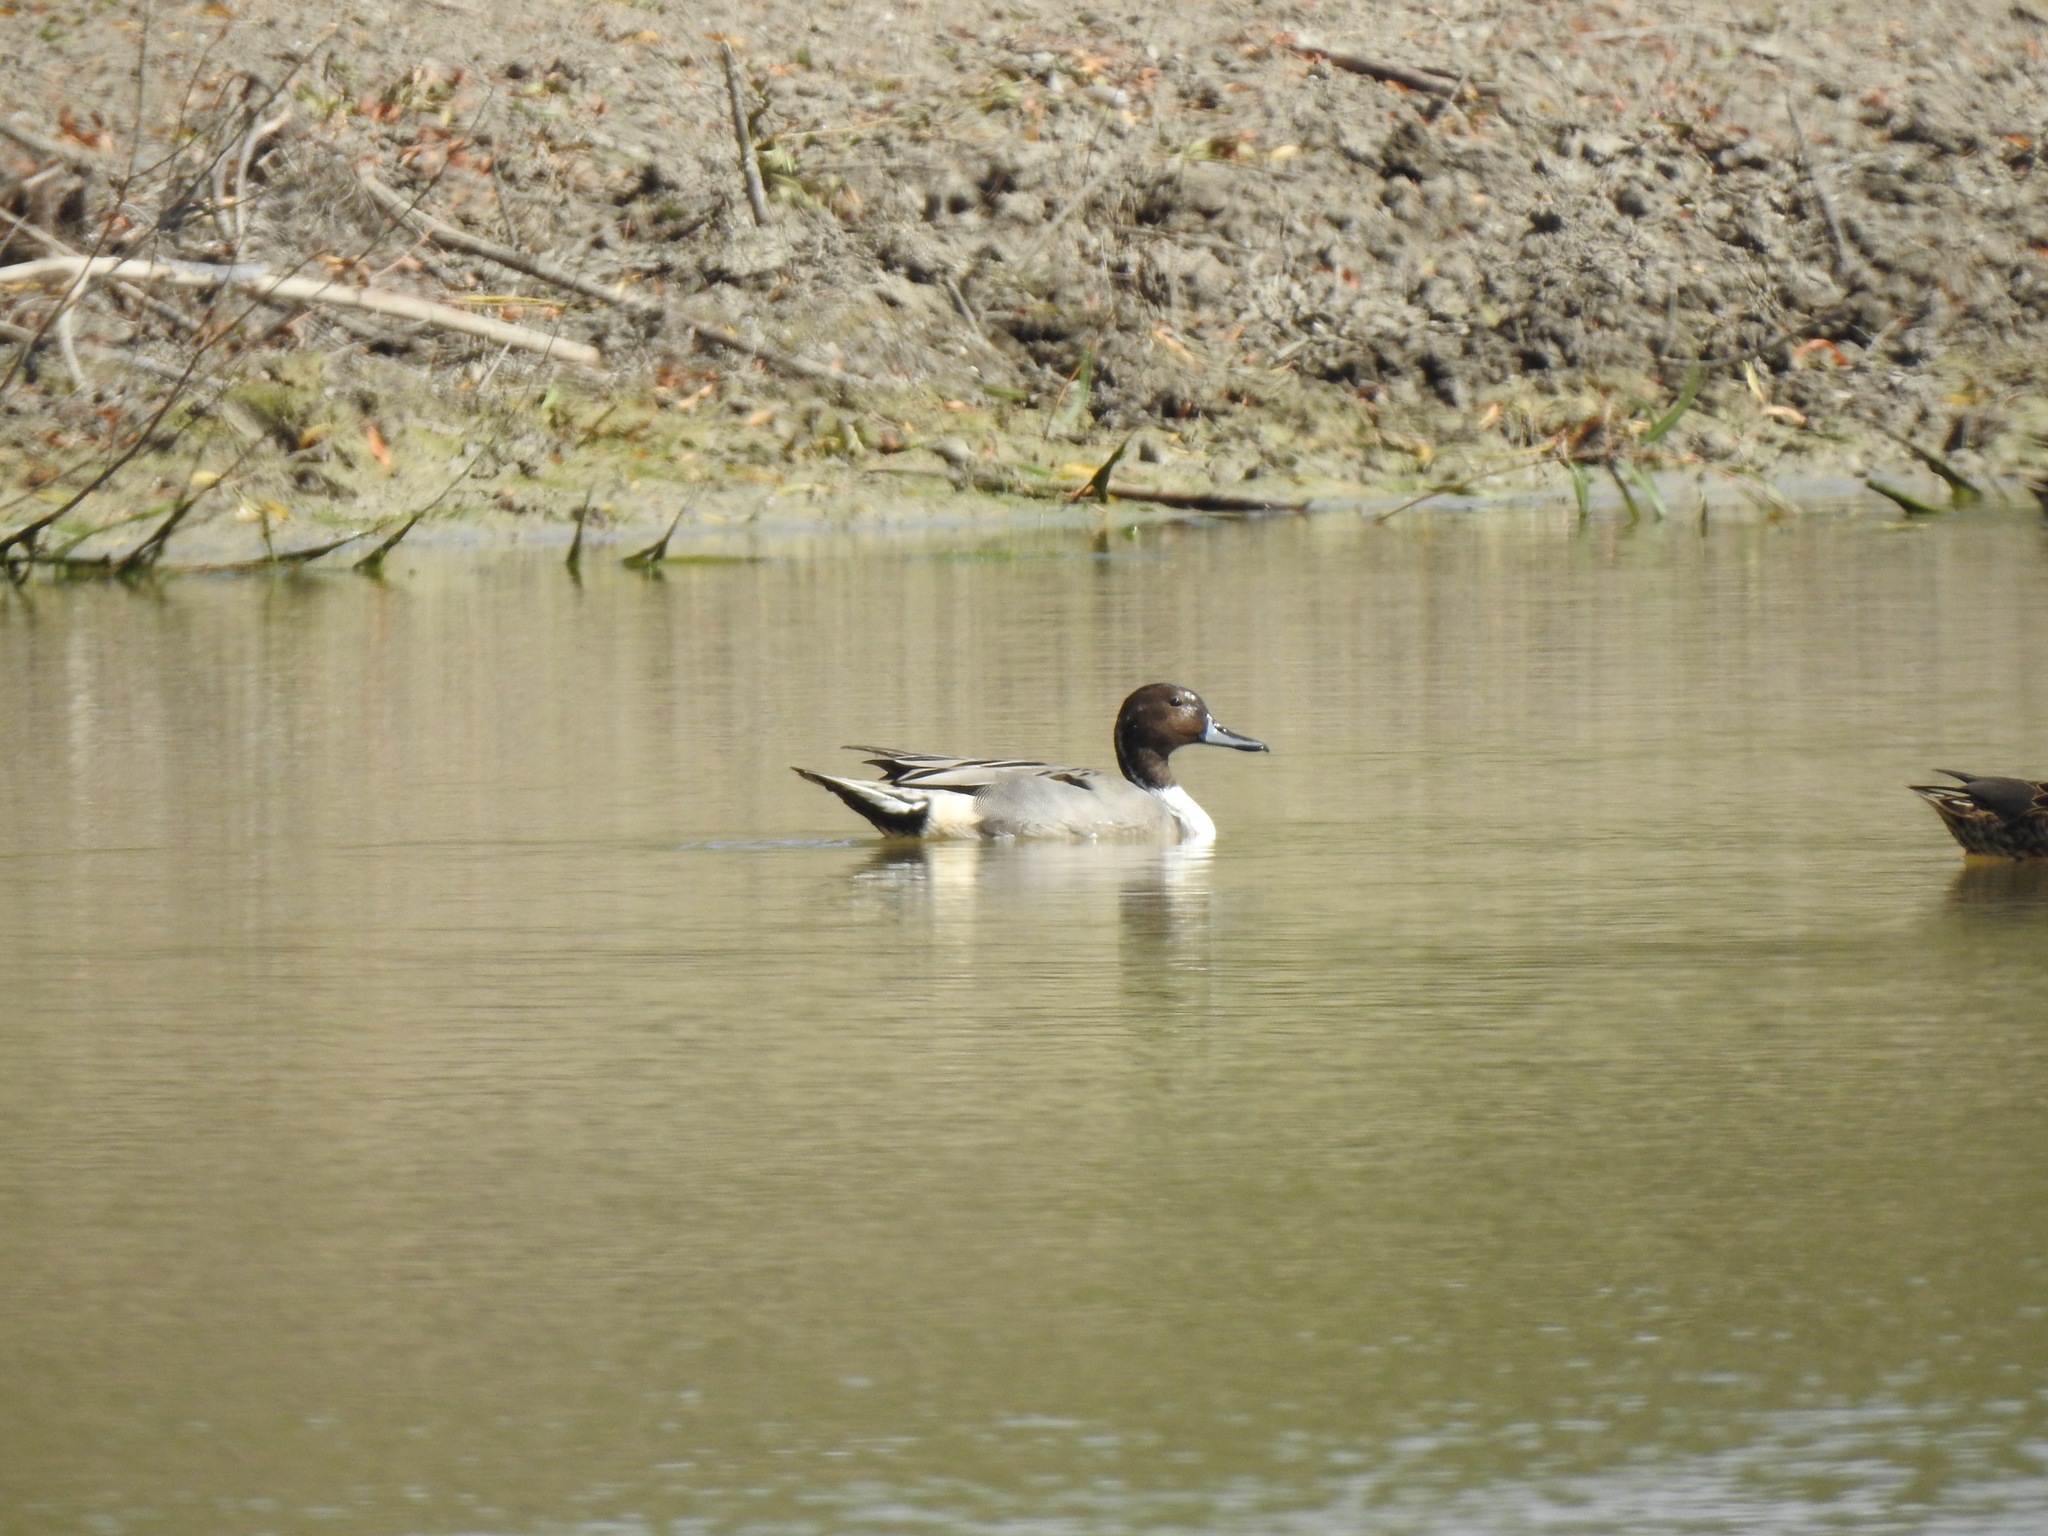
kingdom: Animalia
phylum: Chordata
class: Aves
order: Anseriformes
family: Anatidae
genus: Anas
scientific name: Anas acuta
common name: Northern pintail
